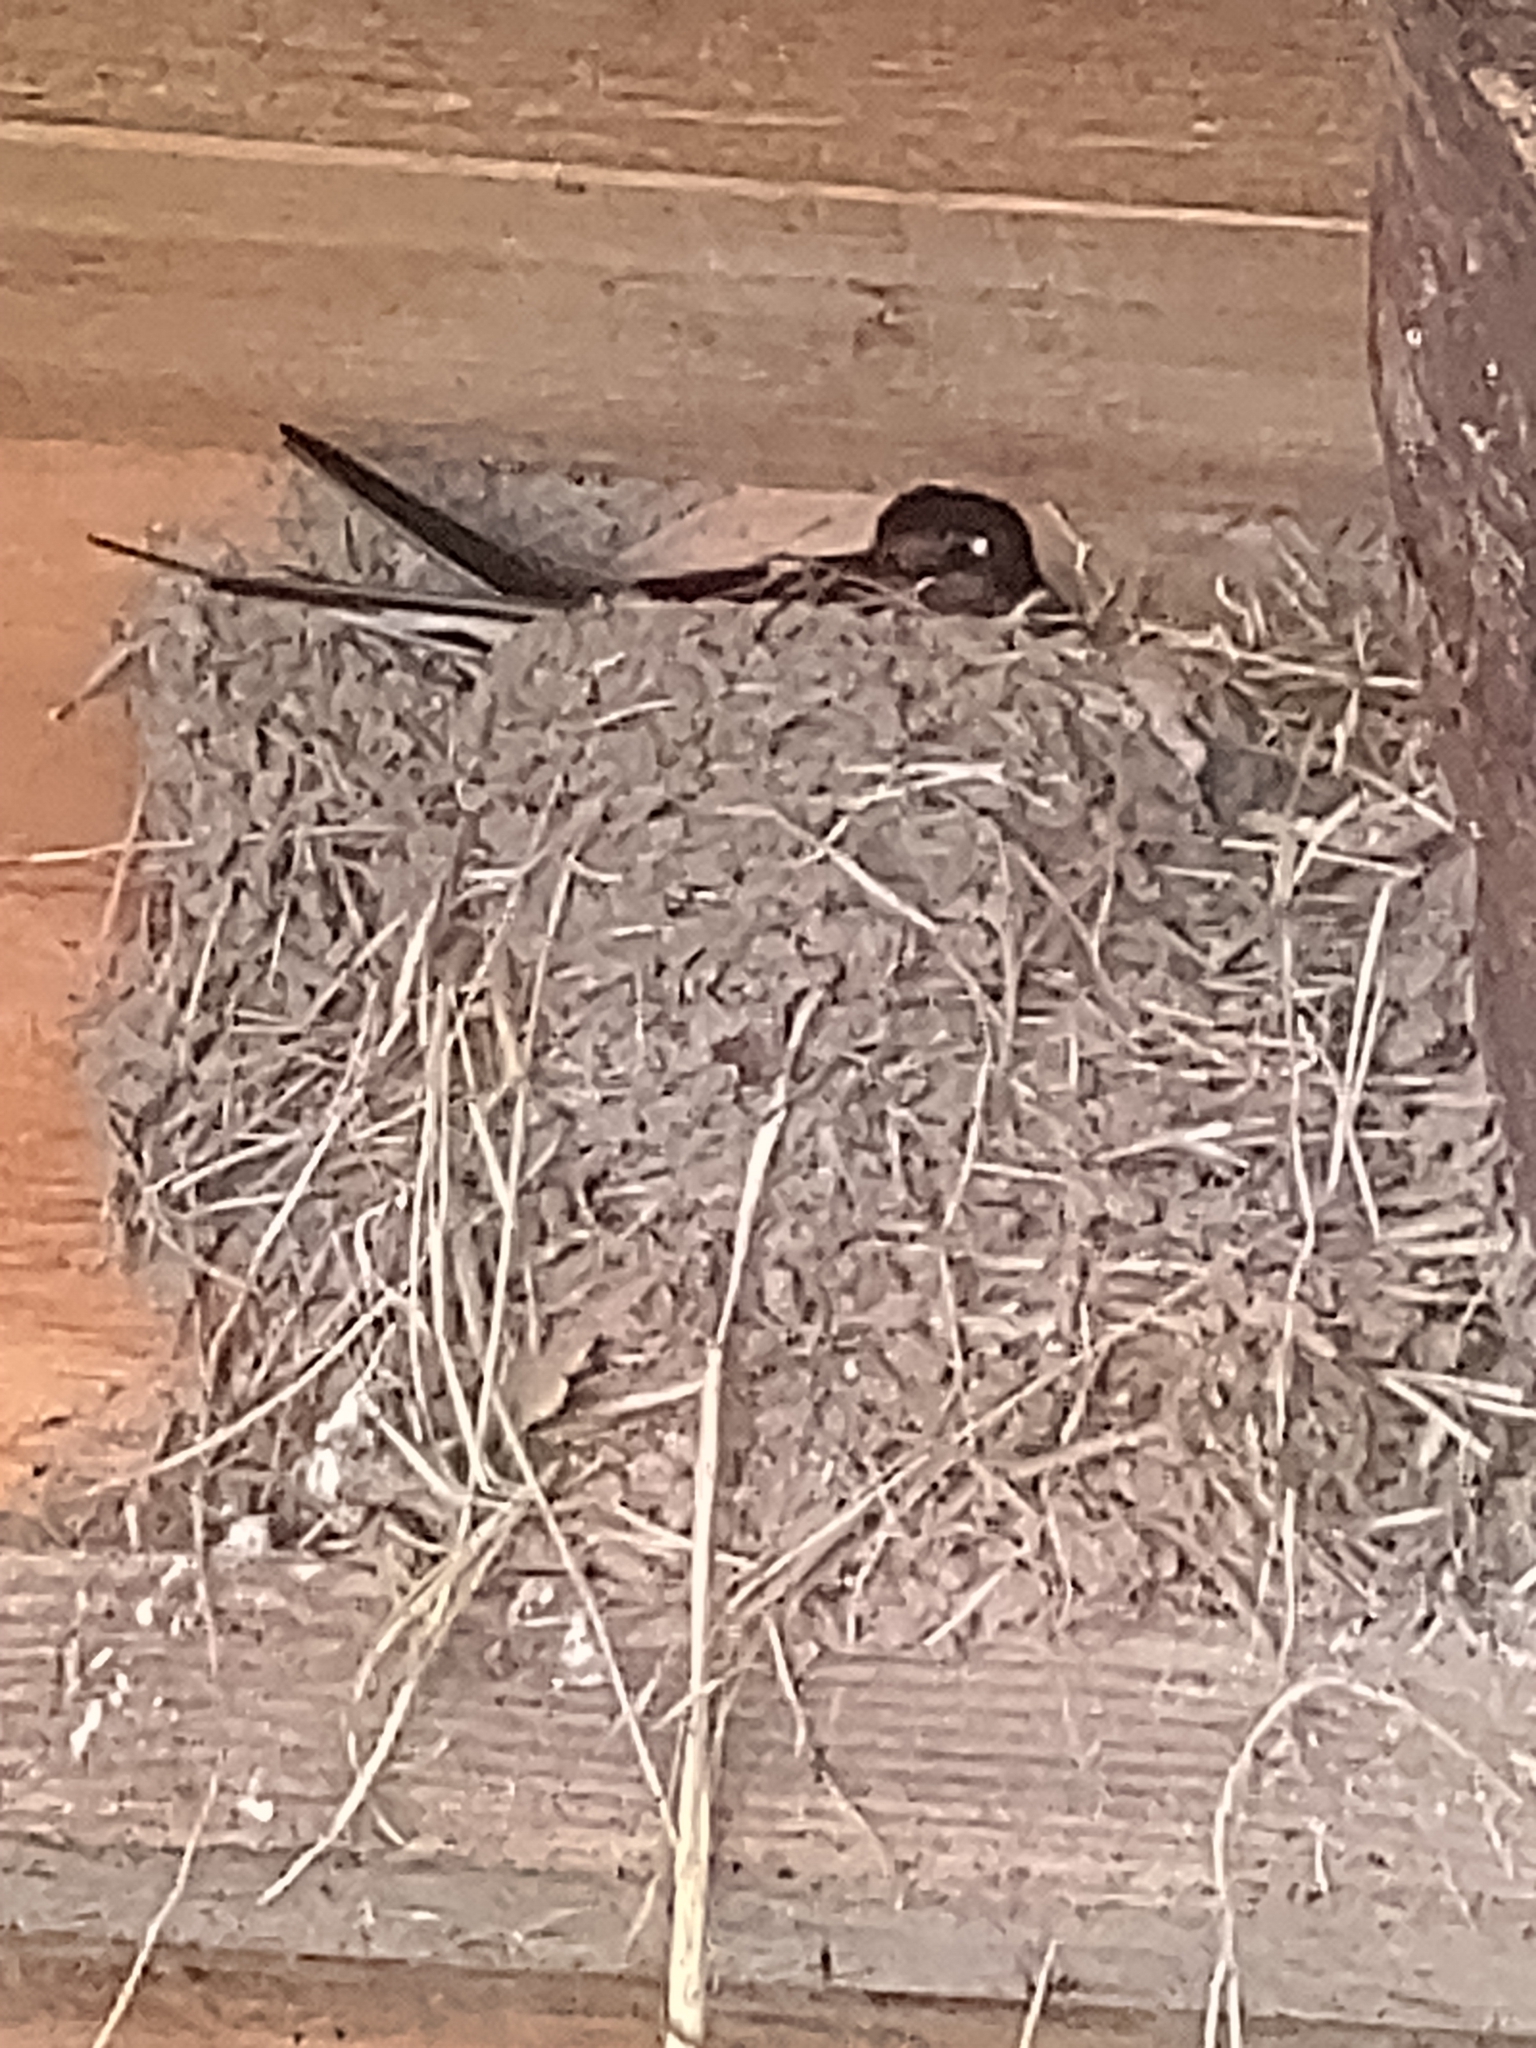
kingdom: Animalia
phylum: Chordata
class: Aves
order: Passeriformes
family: Hirundinidae
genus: Hirundo
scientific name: Hirundo rustica
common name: Barn swallow
